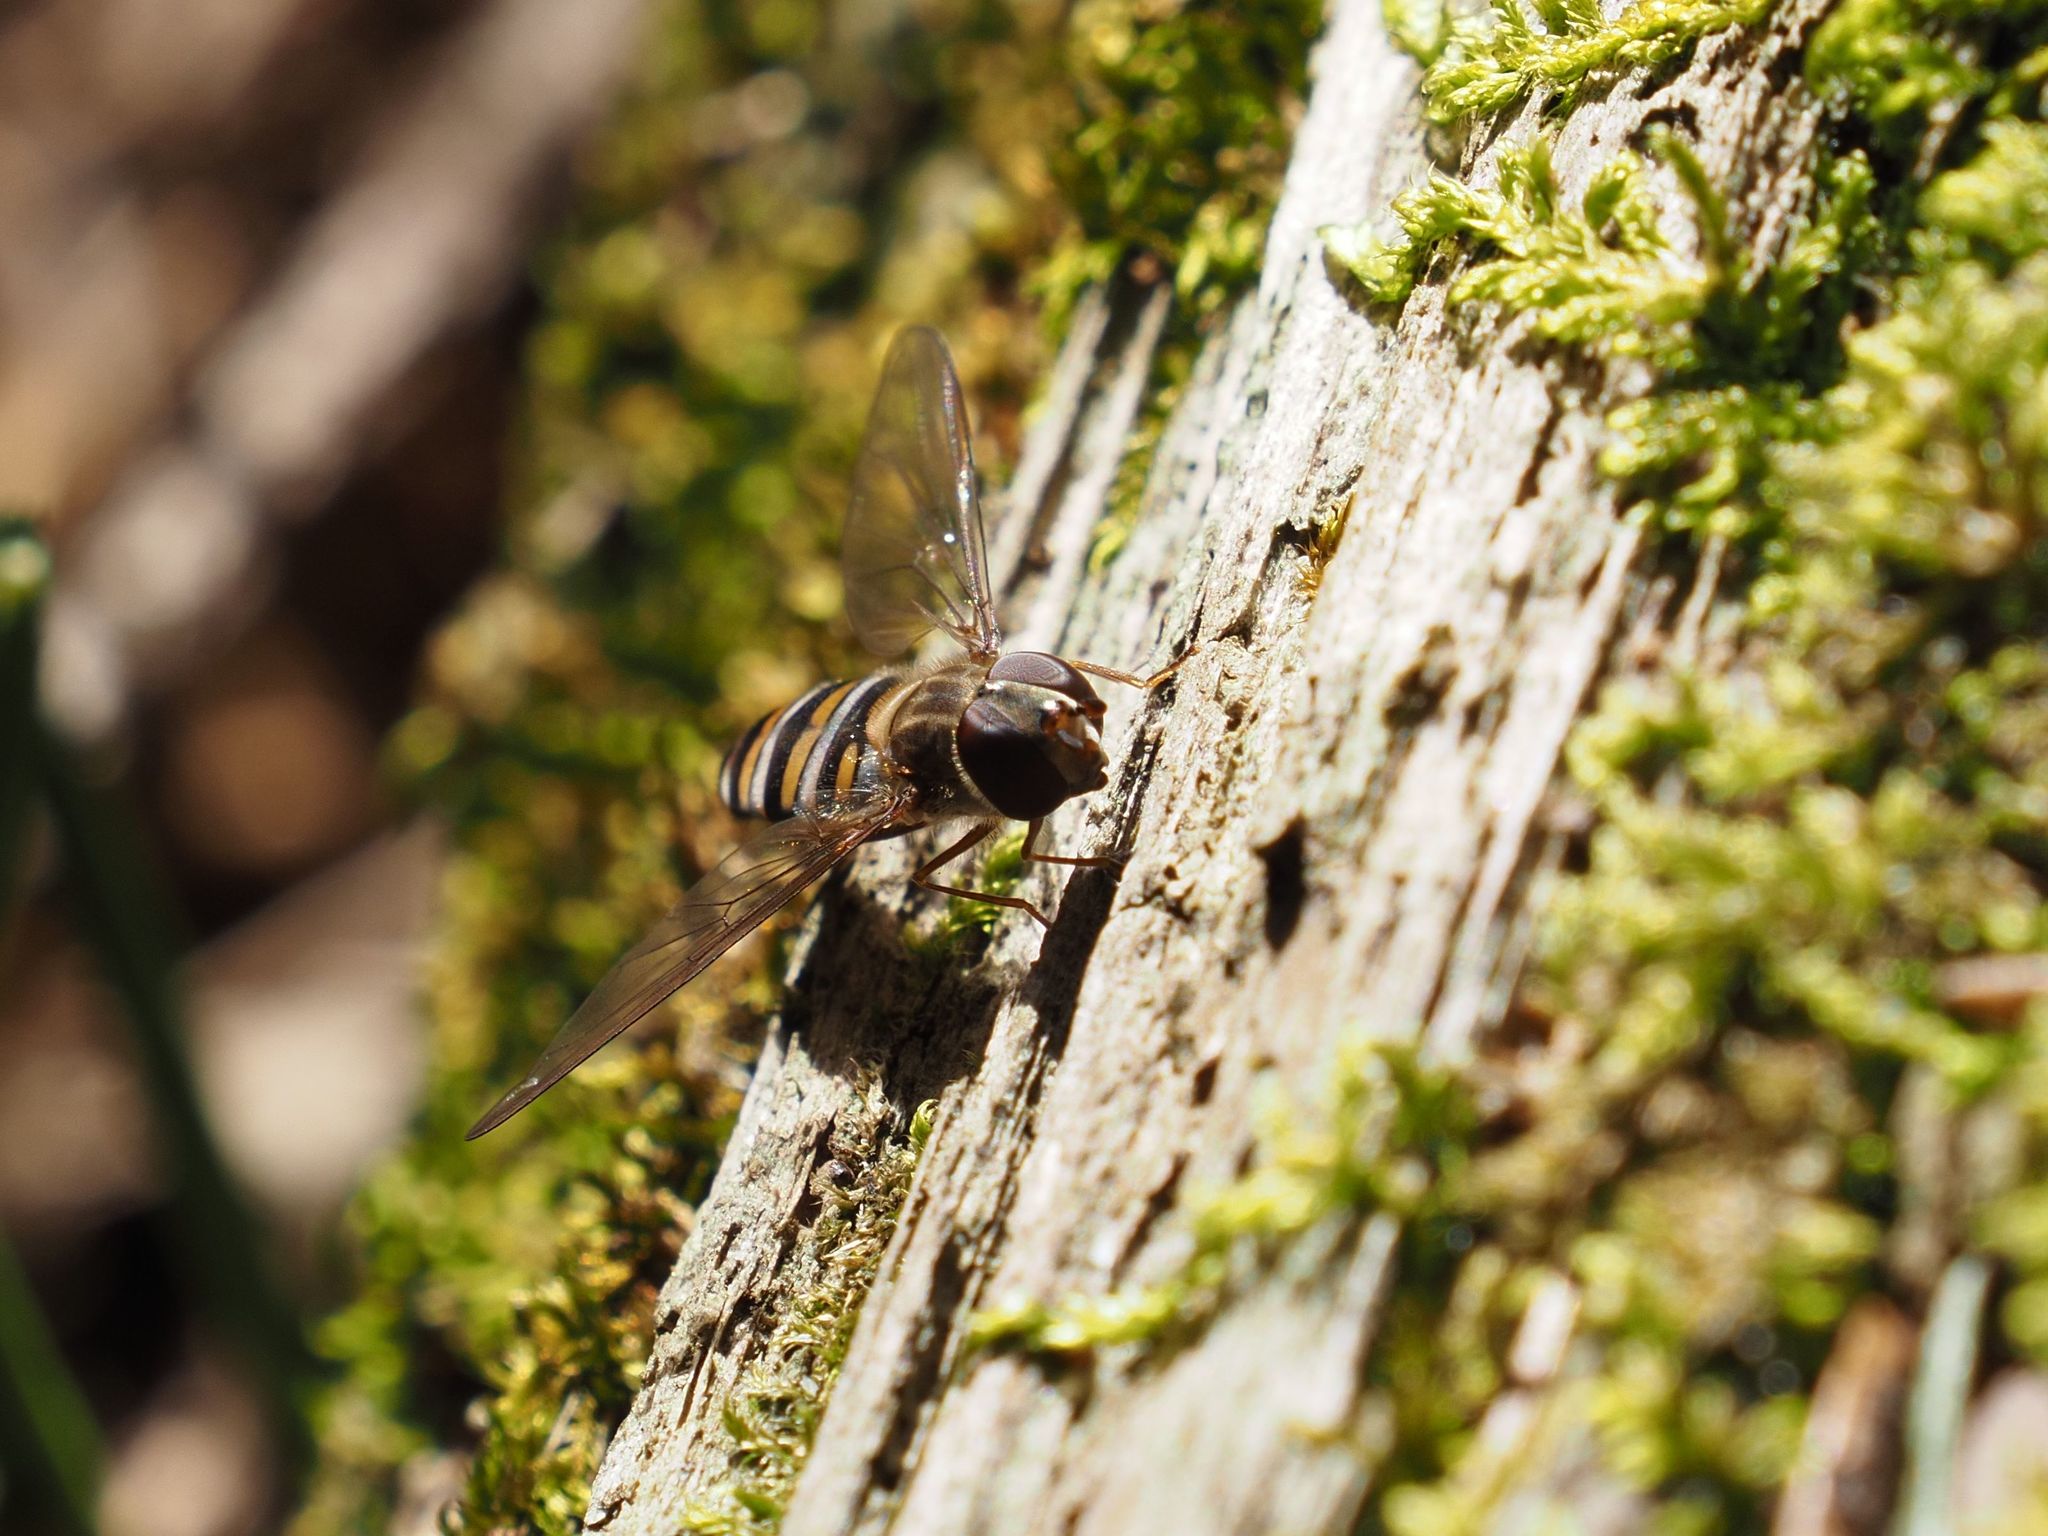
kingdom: Animalia
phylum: Arthropoda
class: Insecta
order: Diptera
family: Syrphidae
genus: Episyrphus
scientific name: Episyrphus balteatus
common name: Marmalade hoverfly
